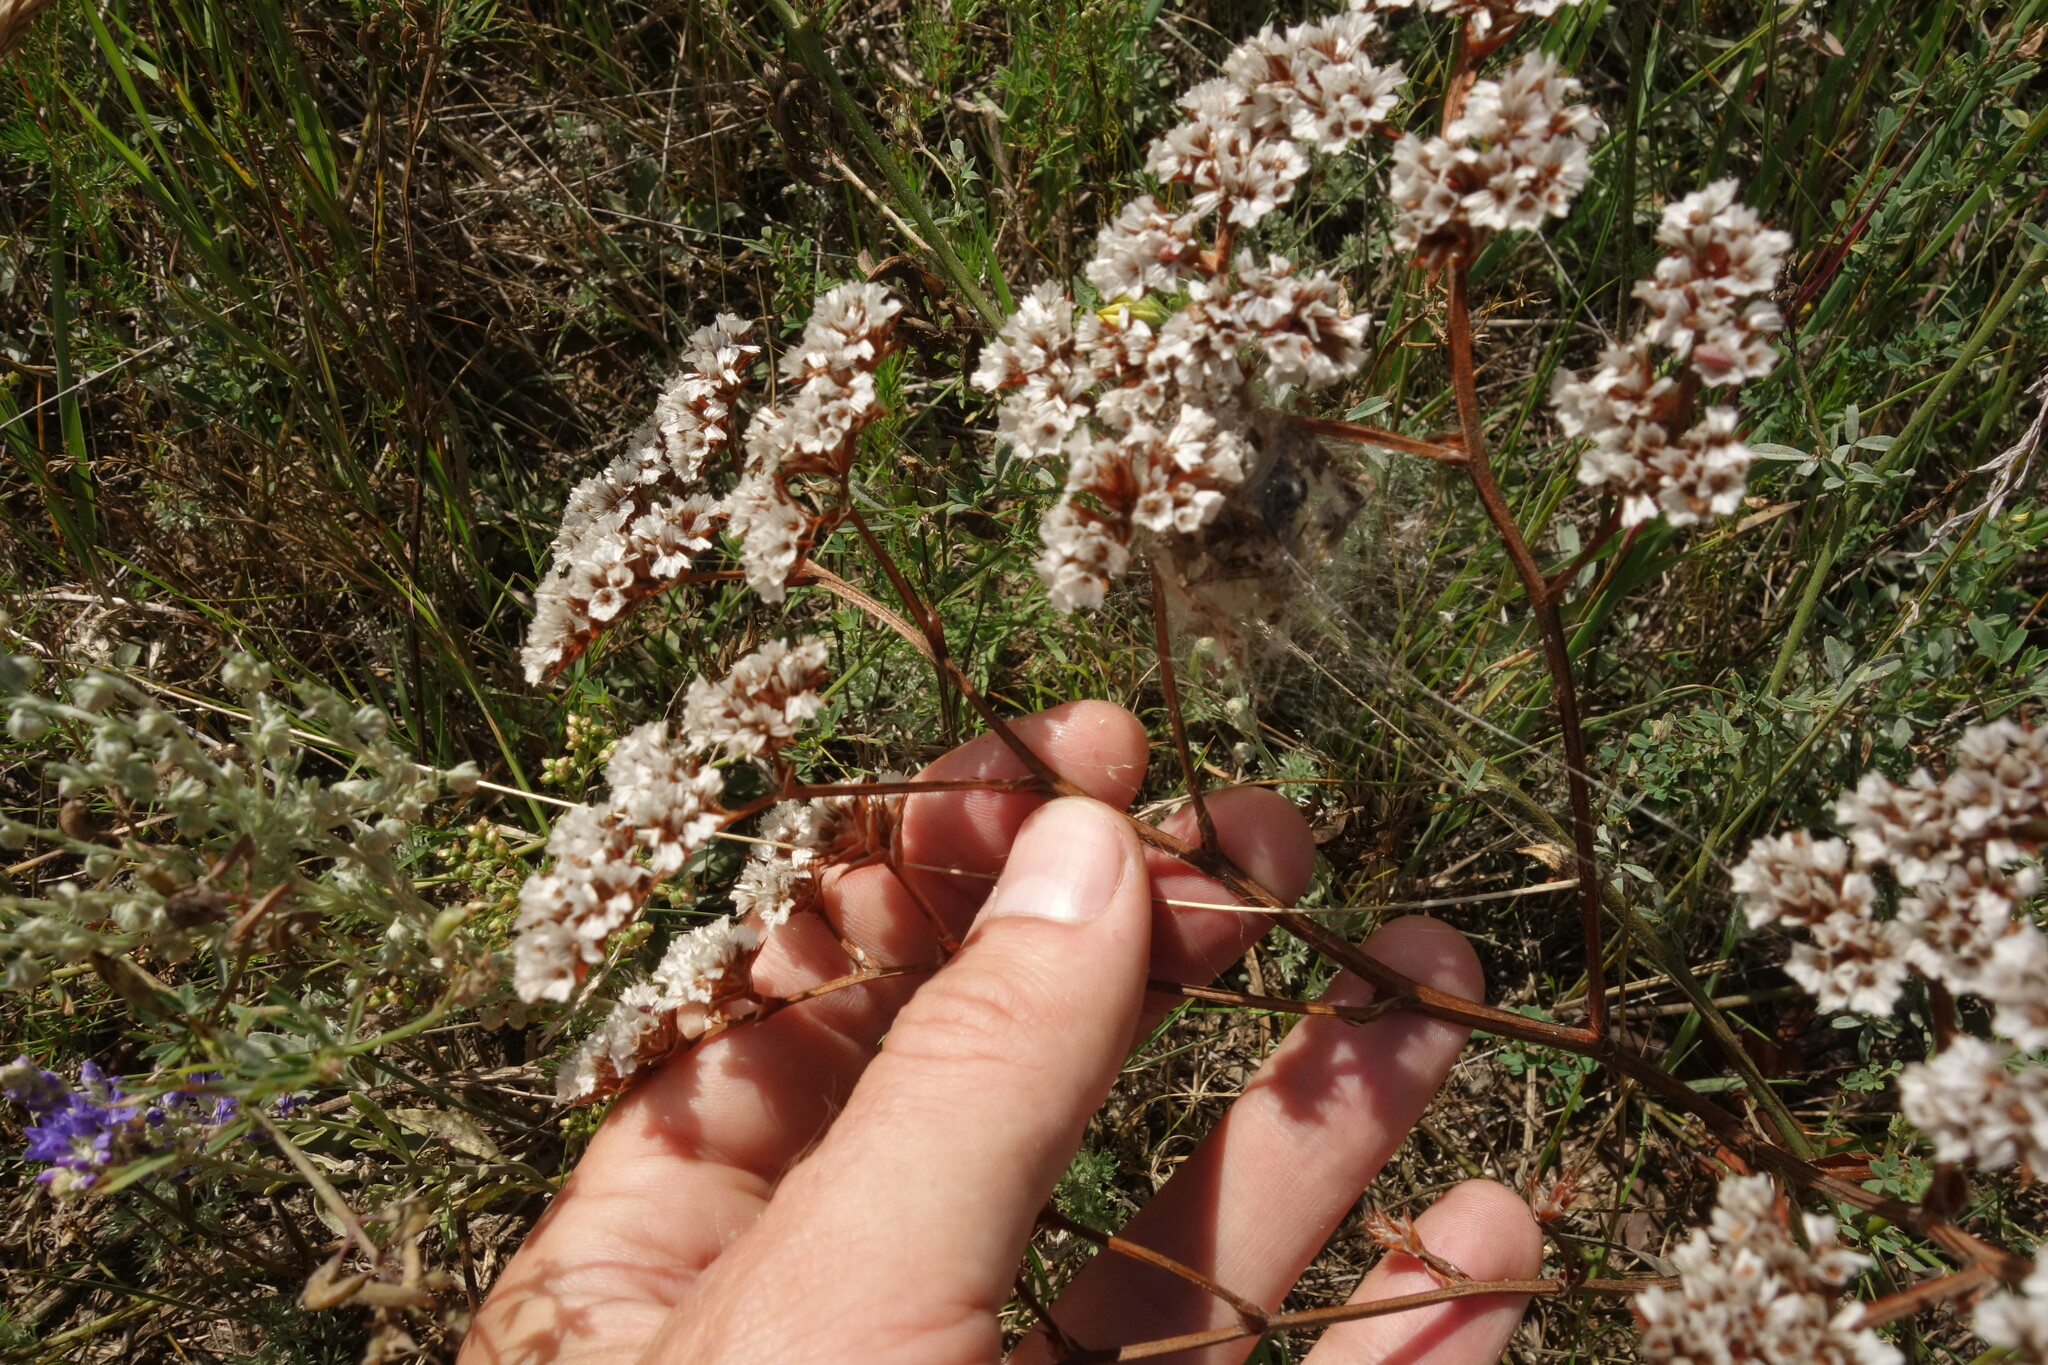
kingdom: Plantae
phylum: Tracheophyta
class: Magnoliopsida
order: Caryophyllales
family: Plumbaginaceae
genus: Goniolimon
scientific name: Goniolimon speciosum
